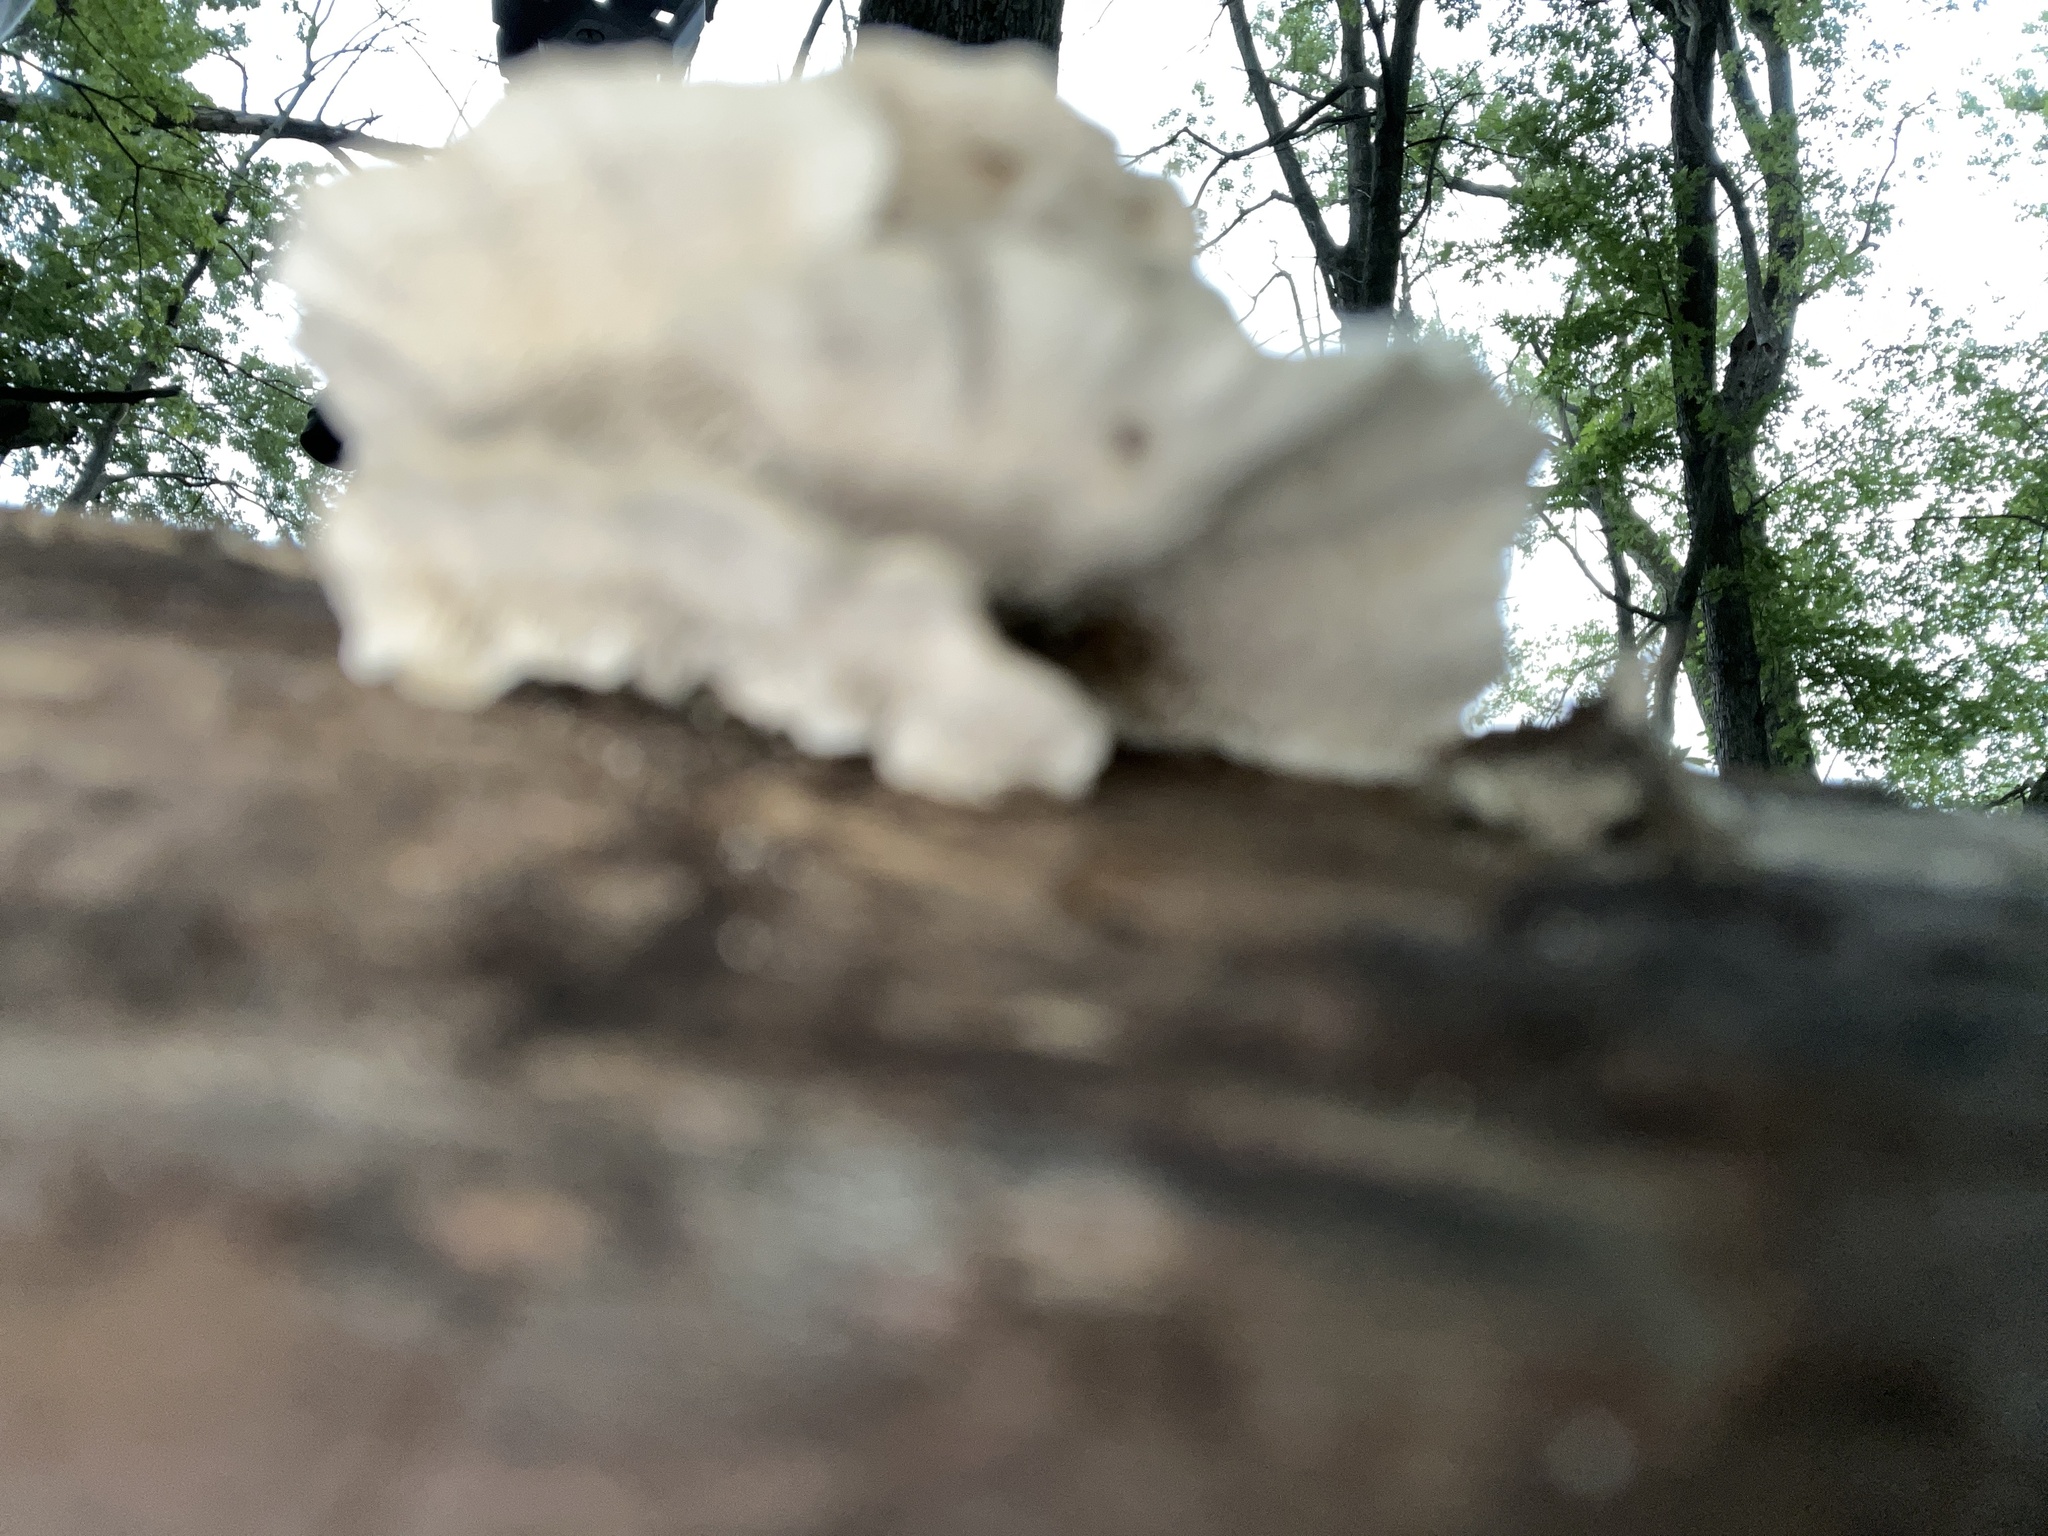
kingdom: Fungi
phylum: Basidiomycota
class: Agaricomycetes
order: Polyporales
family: Polyporaceae
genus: Trametes
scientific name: Trametes versicolor
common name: Turkeytail
